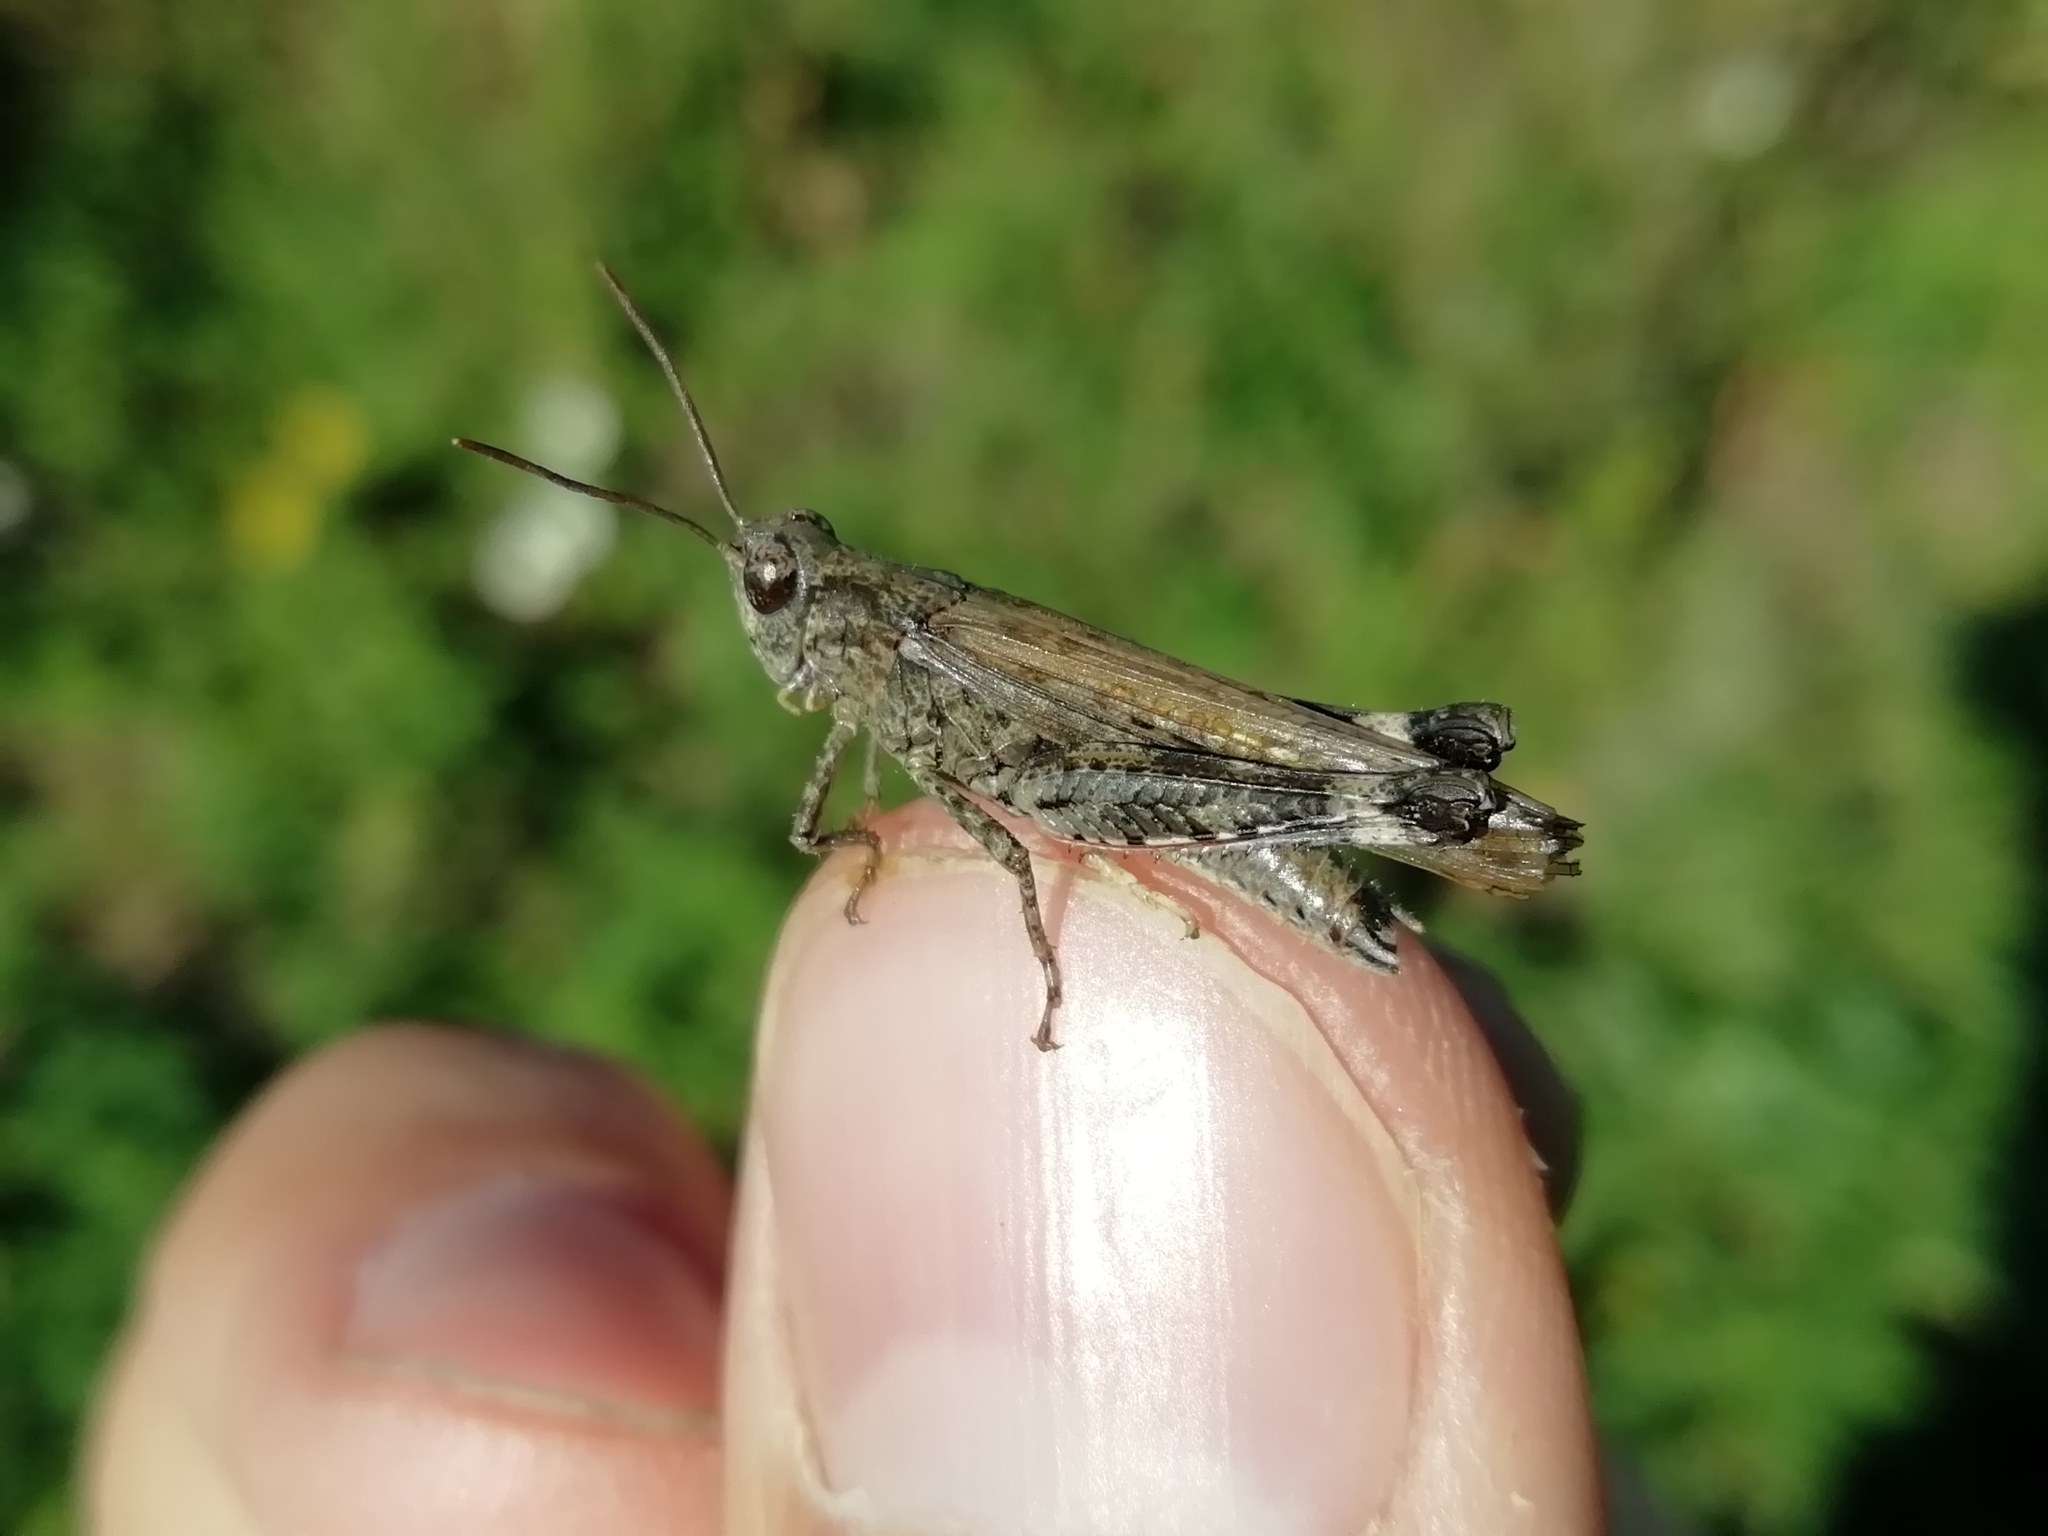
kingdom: Animalia
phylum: Arthropoda
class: Insecta
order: Orthoptera
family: Acrididae
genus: Epacromius
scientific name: Epacromius pulverulentus
